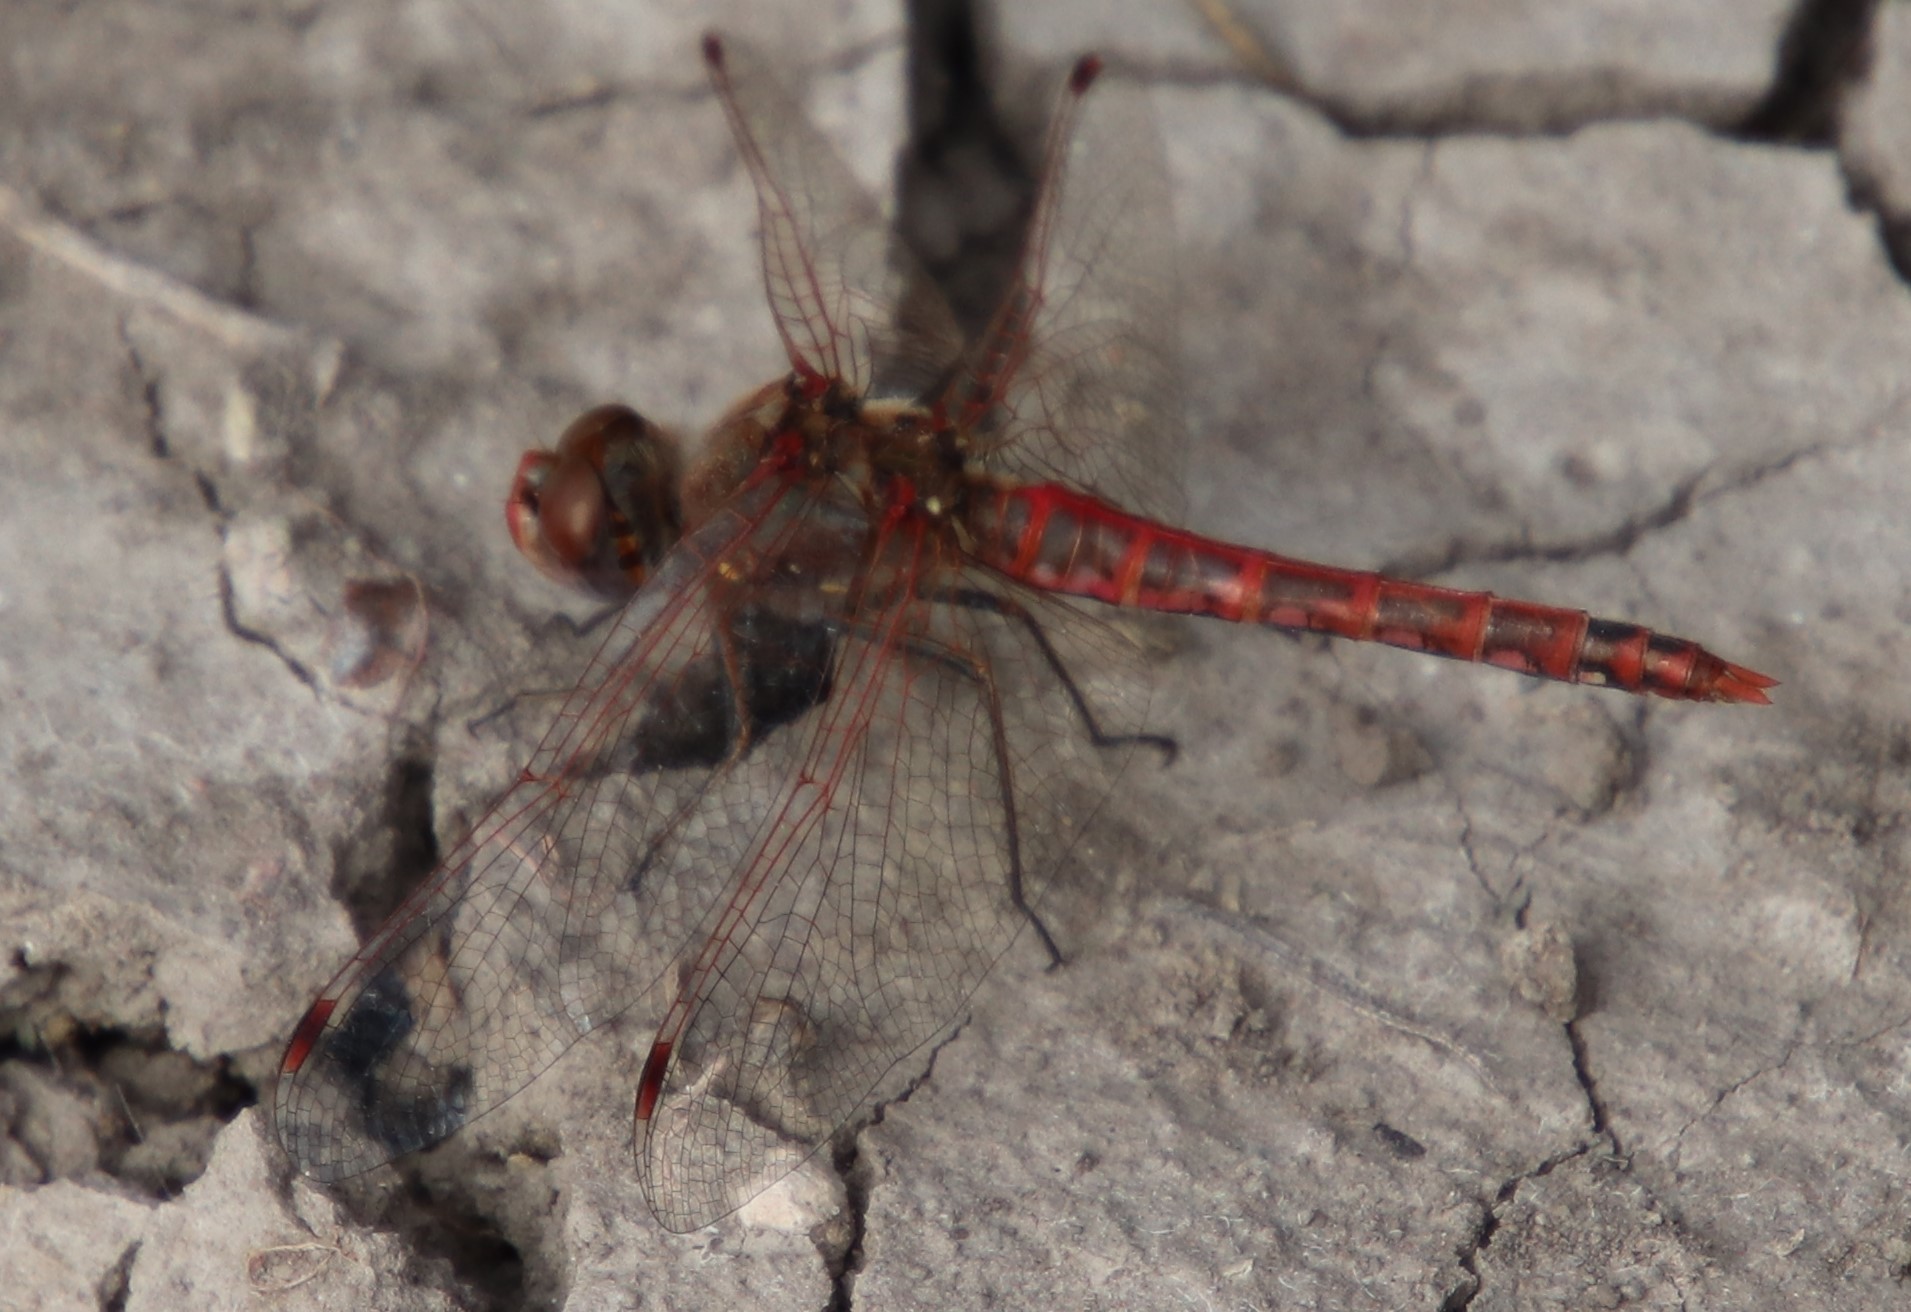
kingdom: Animalia
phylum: Arthropoda
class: Insecta
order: Odonata
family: Libellulidae
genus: Sympetrum
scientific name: Sympetrum corruptum
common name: Variegated meadowhawk
